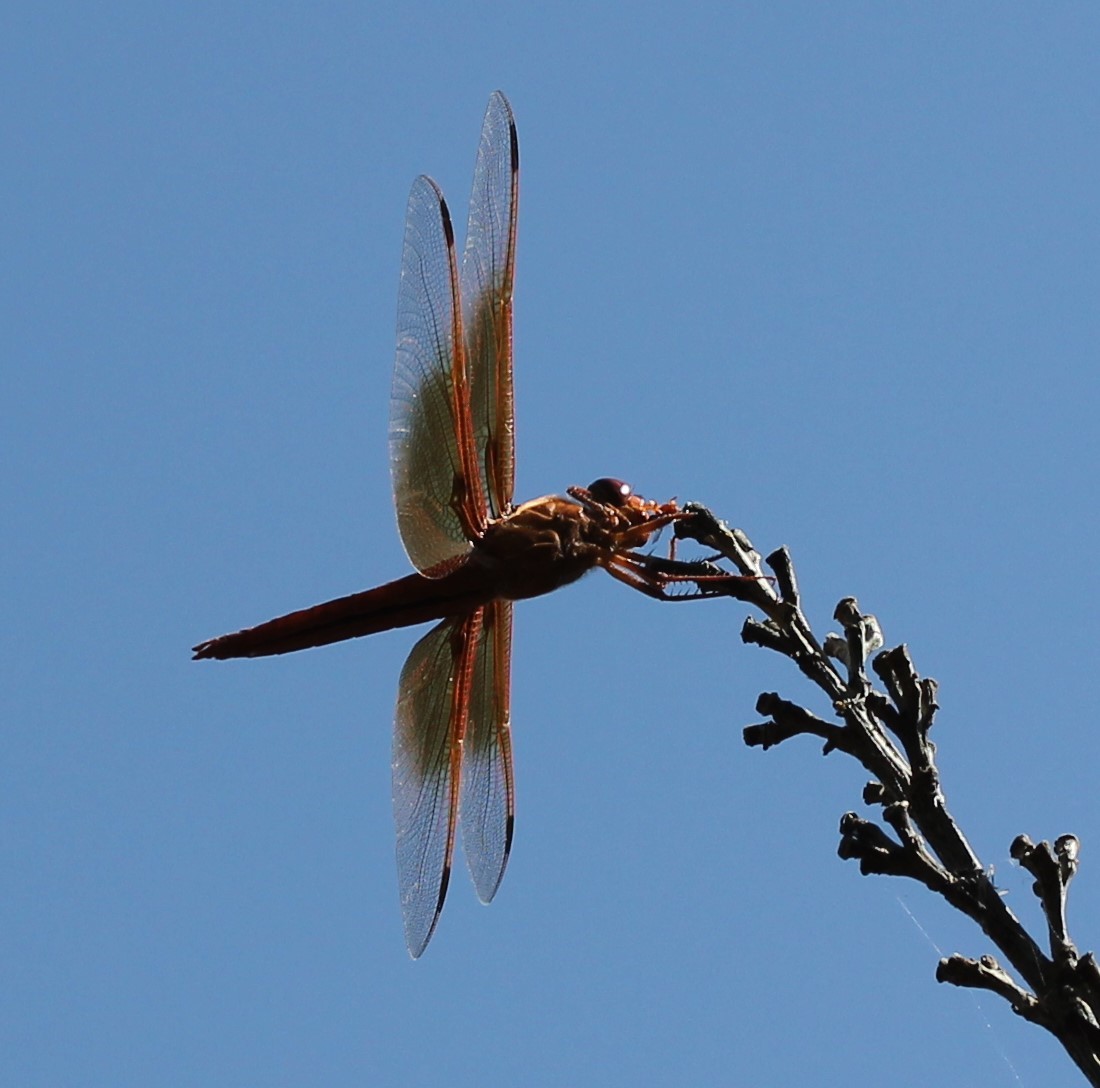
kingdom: Animalia
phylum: Arthropoda
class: Insecta
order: Odonata
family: Libellulidae
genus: Libellula
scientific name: Libellula saturata
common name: Flame skimmer
